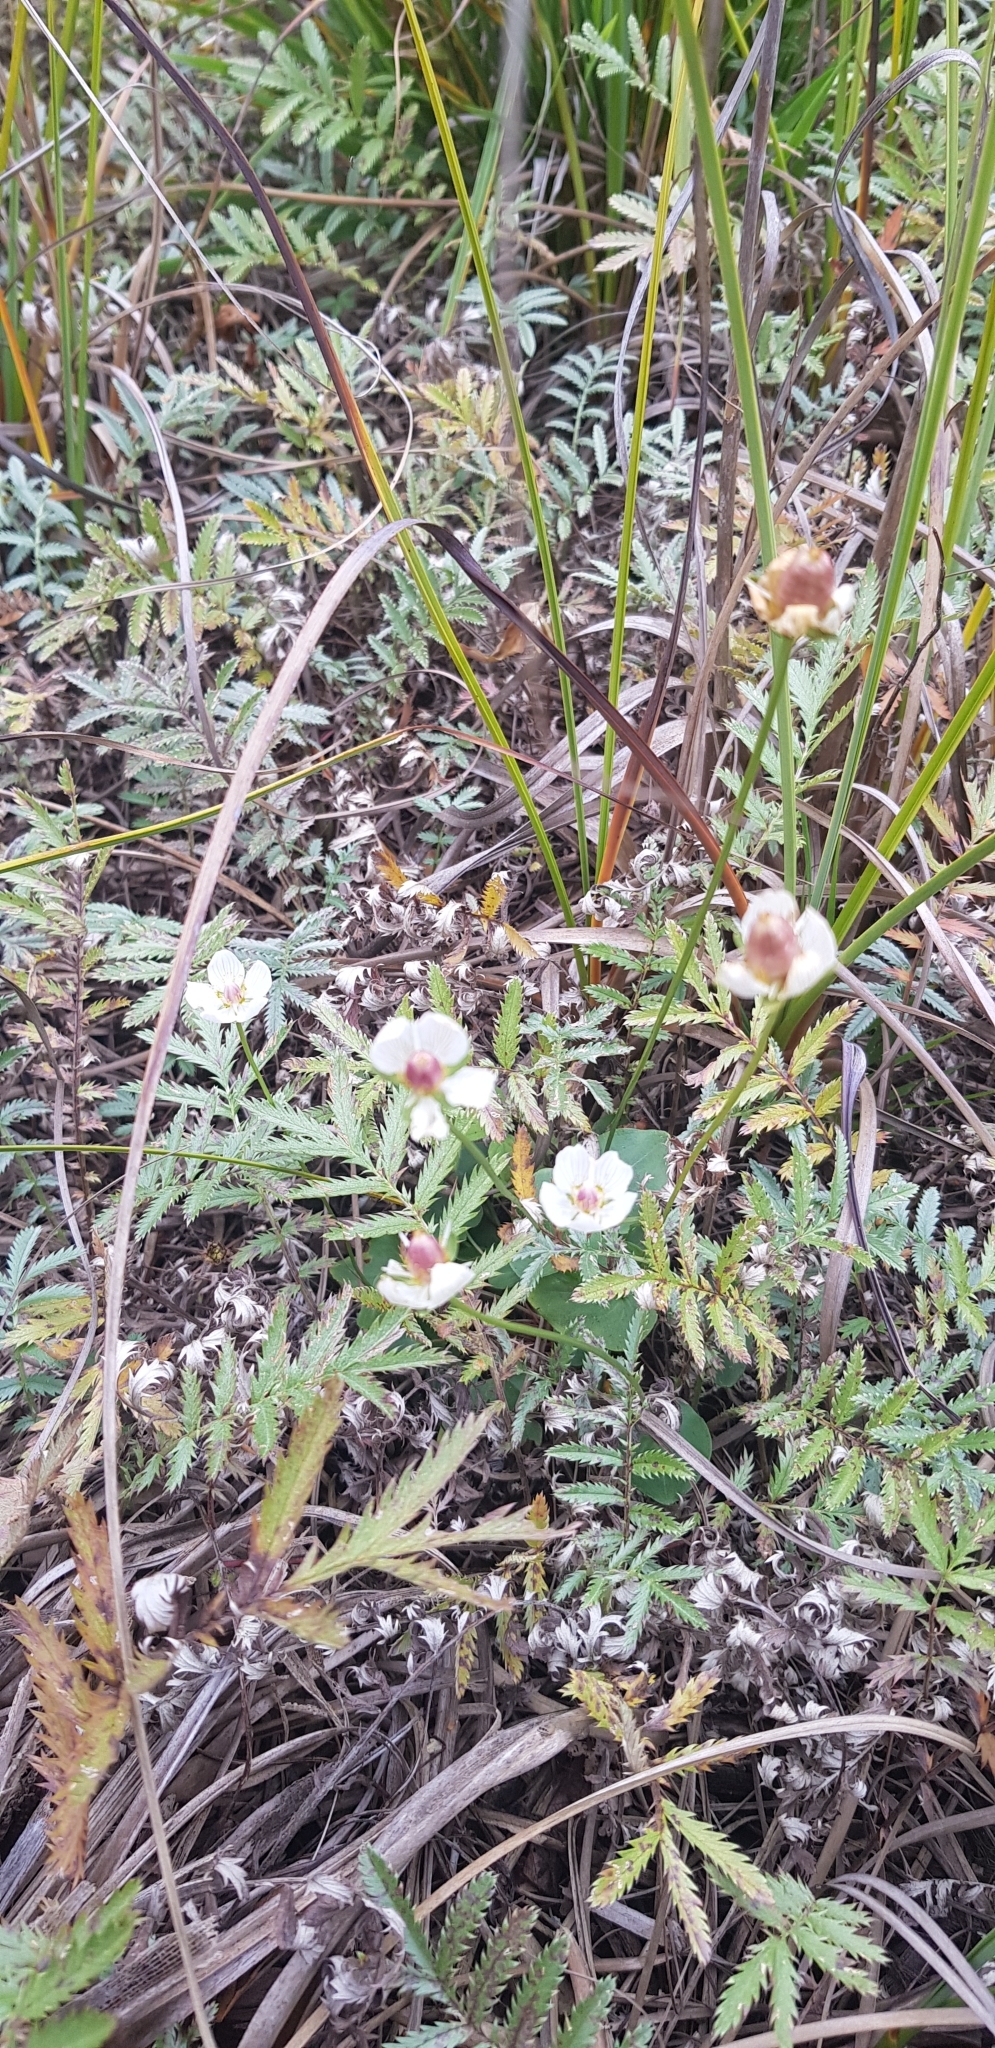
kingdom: Plantae
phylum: Tracheophyta
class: Magnoliopsida
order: Celastrales
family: Parnassiaceae
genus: Parnassia
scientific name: Parnassia palustris
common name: Grass-of-parnassus
